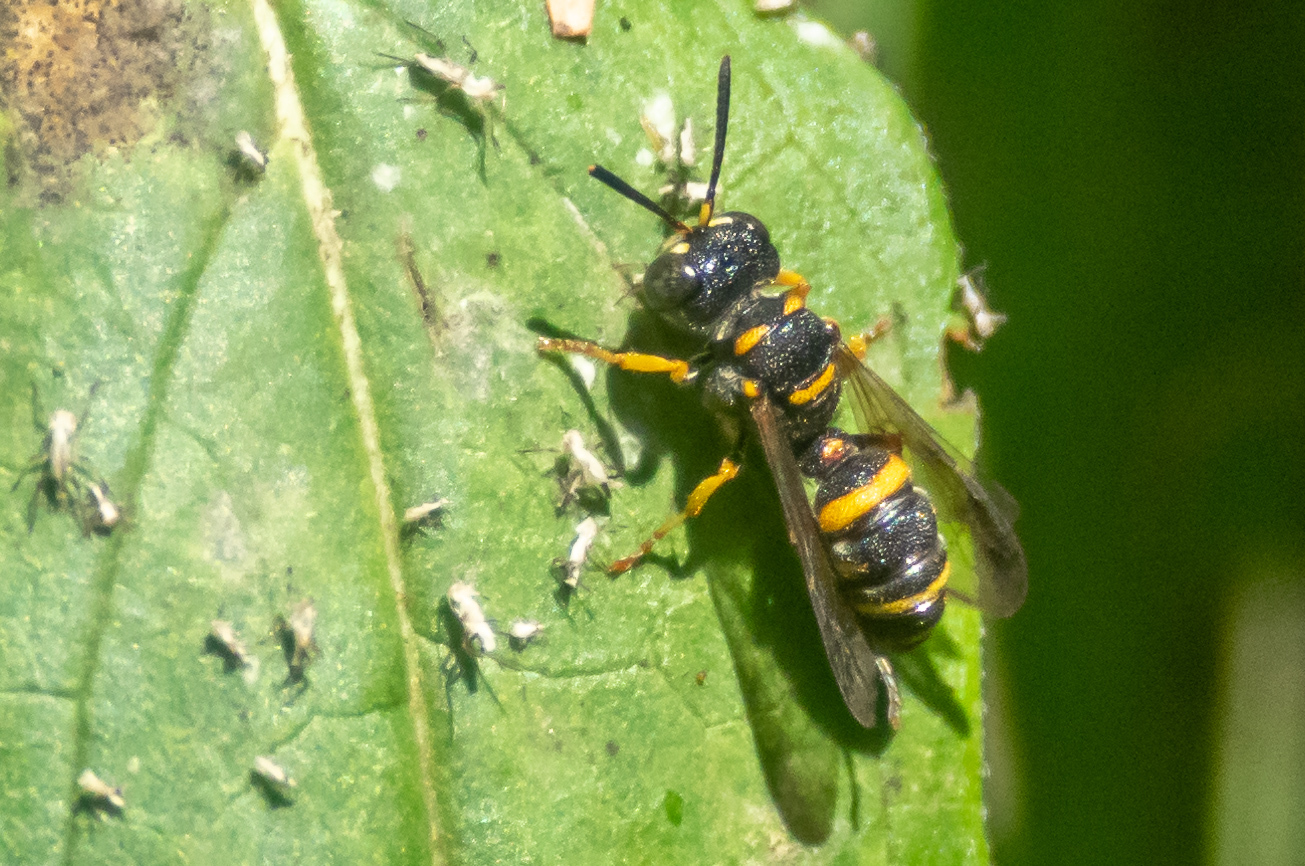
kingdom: Animalia
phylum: Arthropoda
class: Insecta
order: Hymenoptera
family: Crabronidae
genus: Cerceris
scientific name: Cerceris kennicottii
